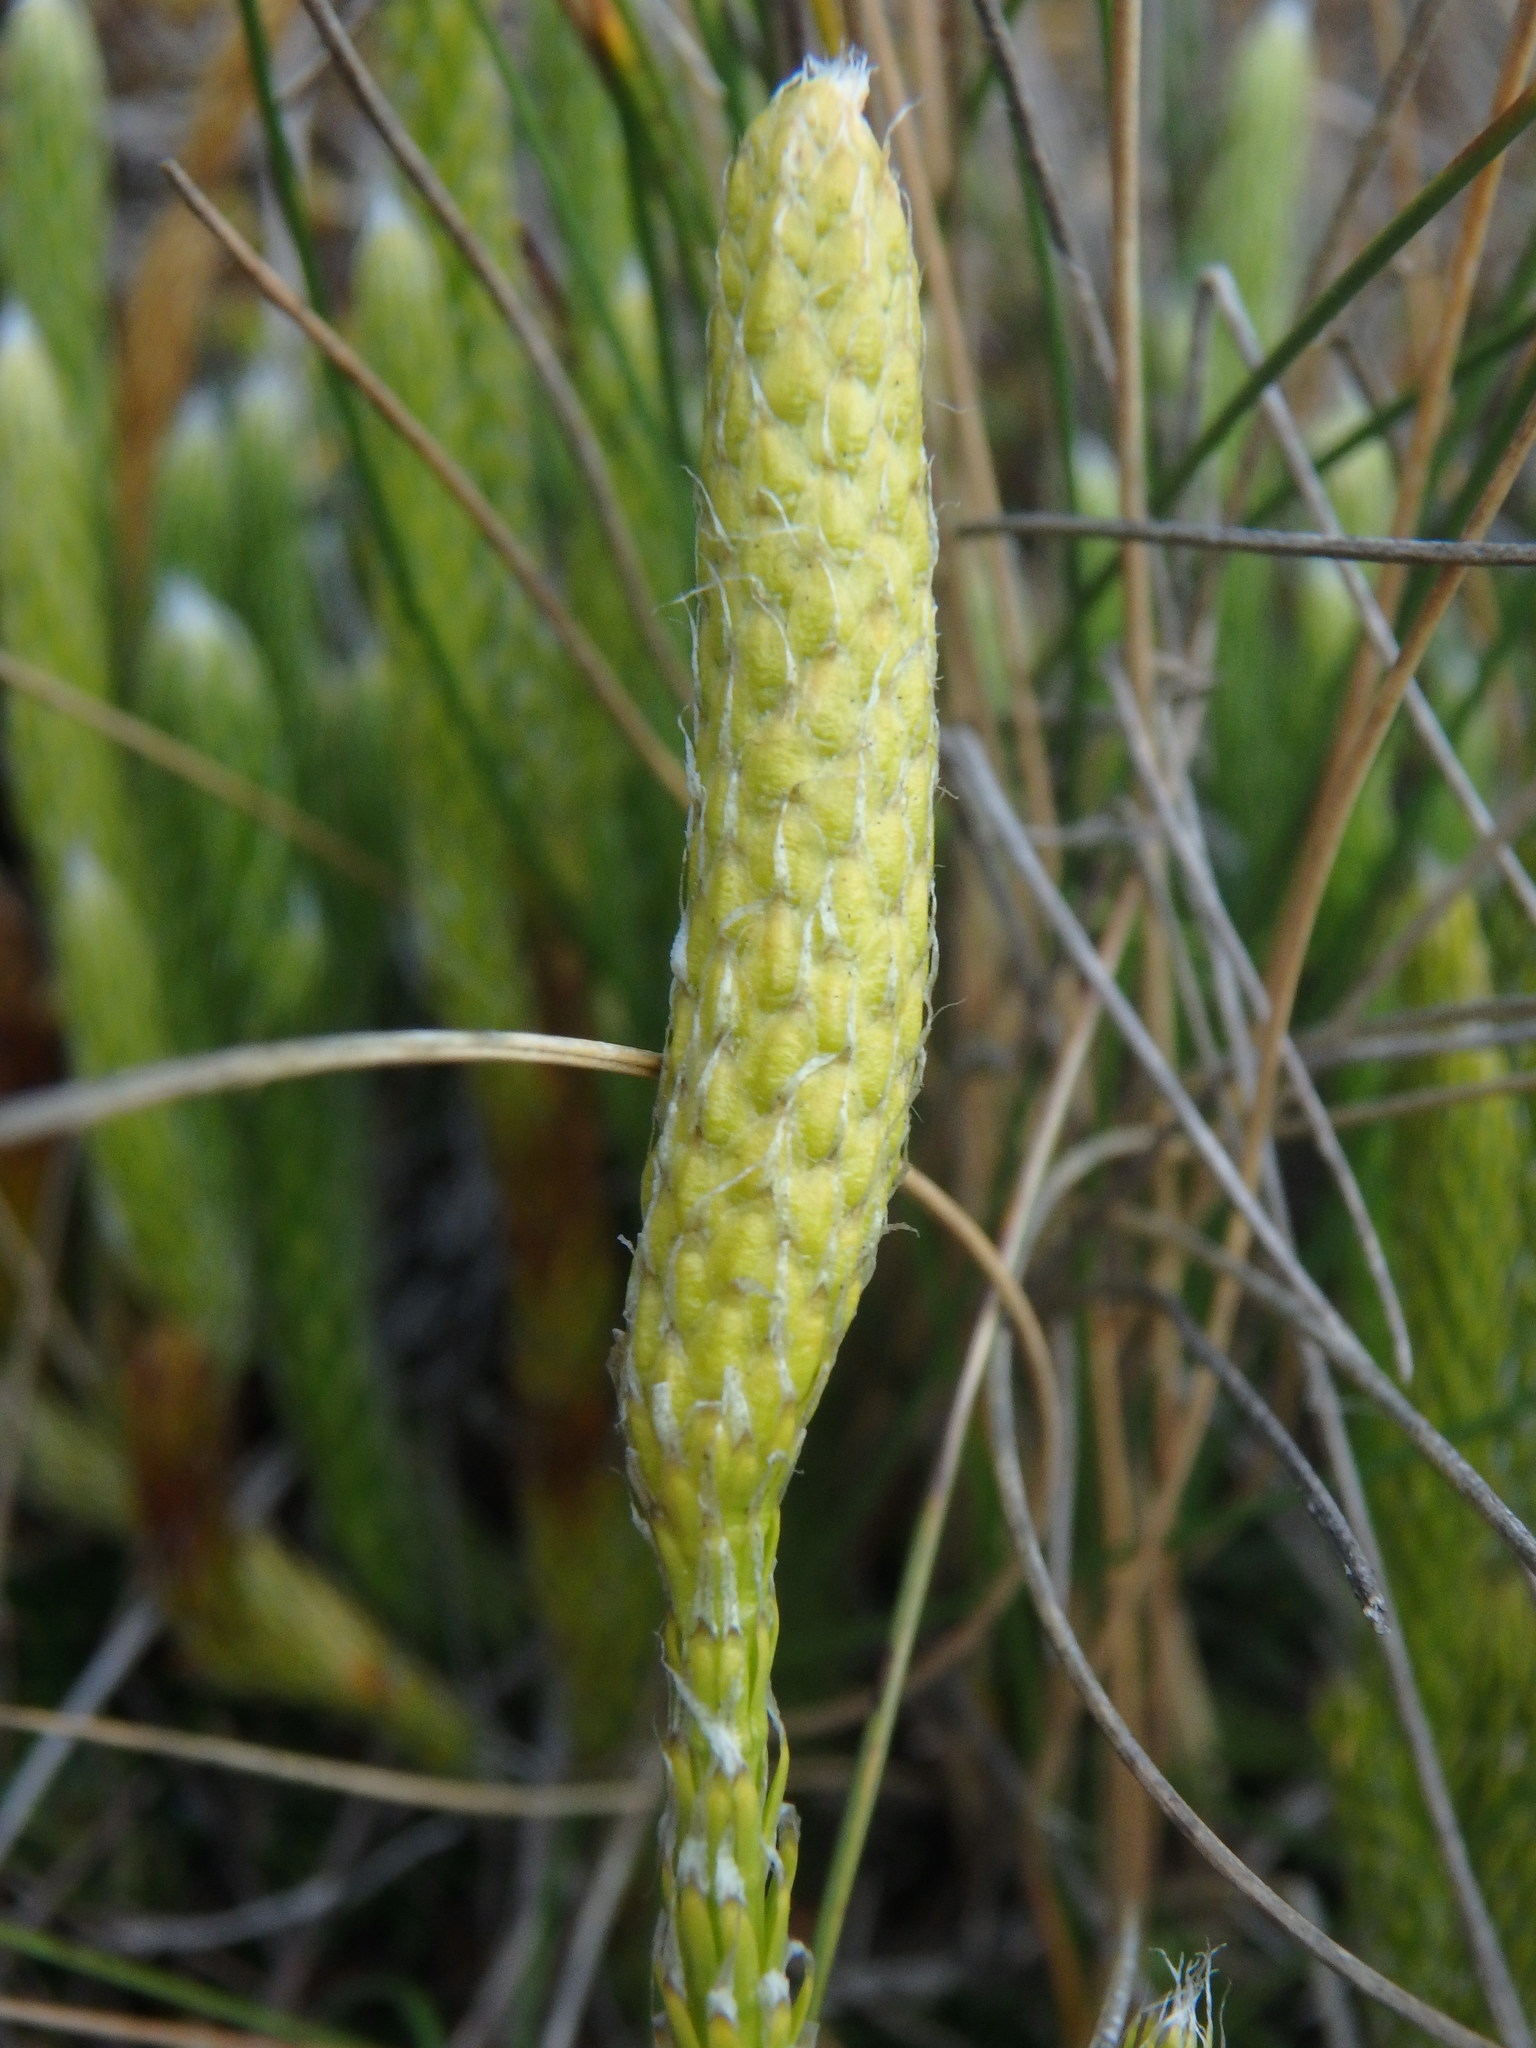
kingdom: Plantae
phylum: Tracheophyta
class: Lycopodiopsida
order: Lycopodiales
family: Lycopodiaceae
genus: Lycopodium
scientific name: Lycopodium clavatum
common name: Stag's-horn clubmoss
